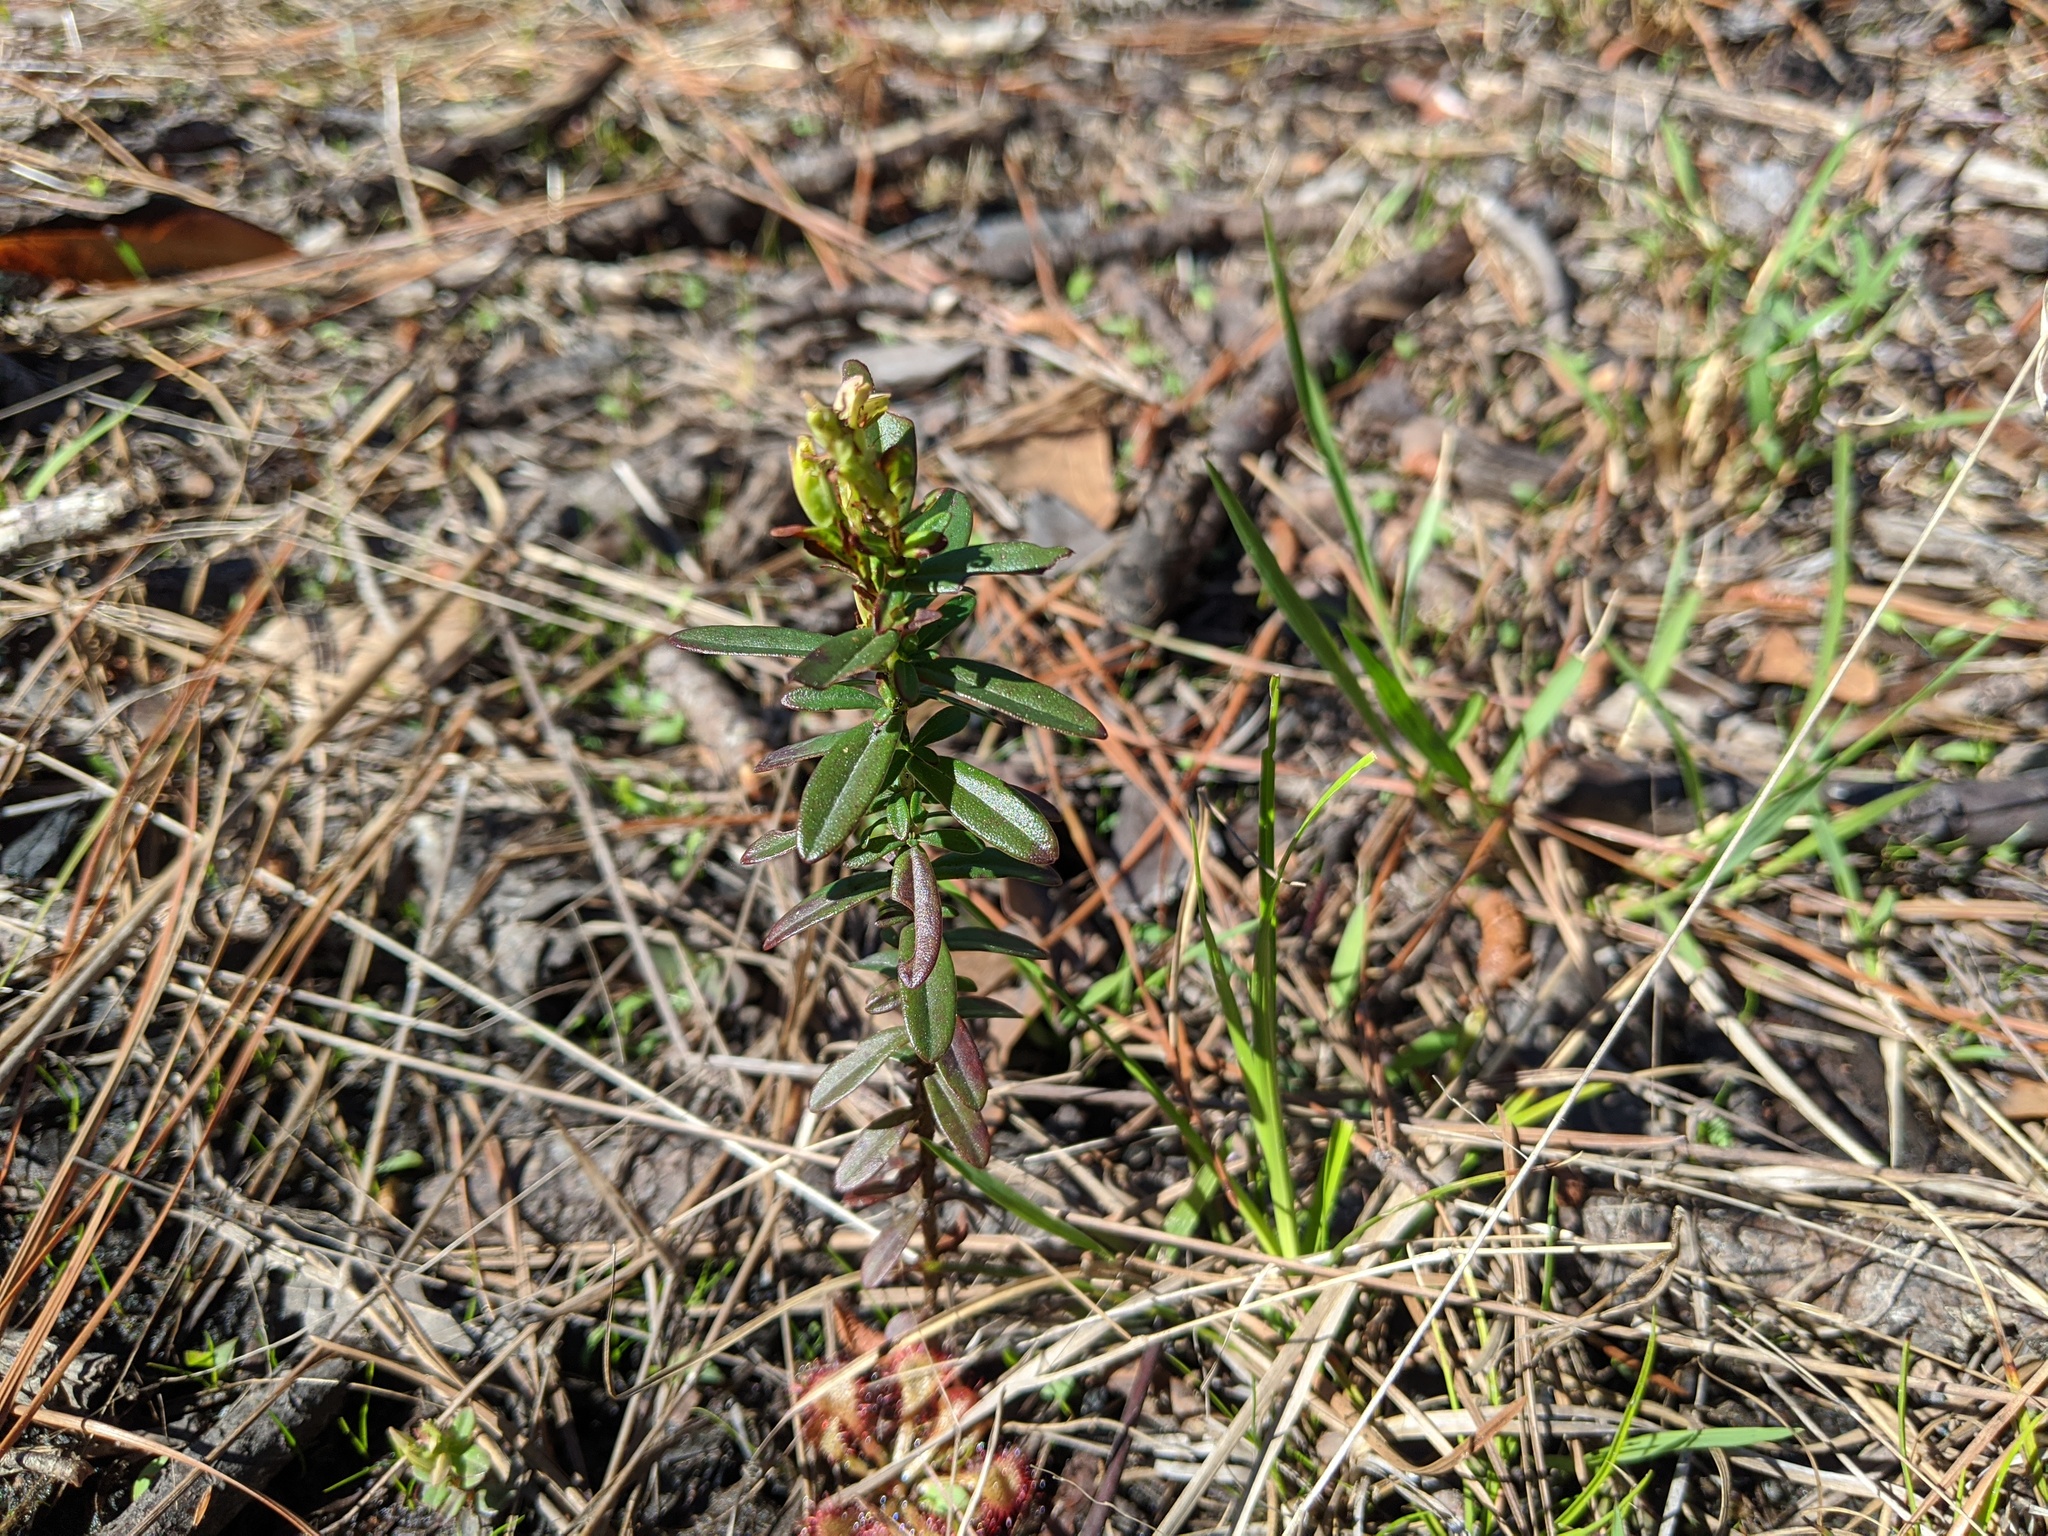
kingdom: Plantae
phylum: Tracheophyta
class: Magnoliopsida
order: Malpighiales
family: Hypericaceae
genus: Hypericum
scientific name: Hypericum cistifolium
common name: Round-pod st. john's-wort
